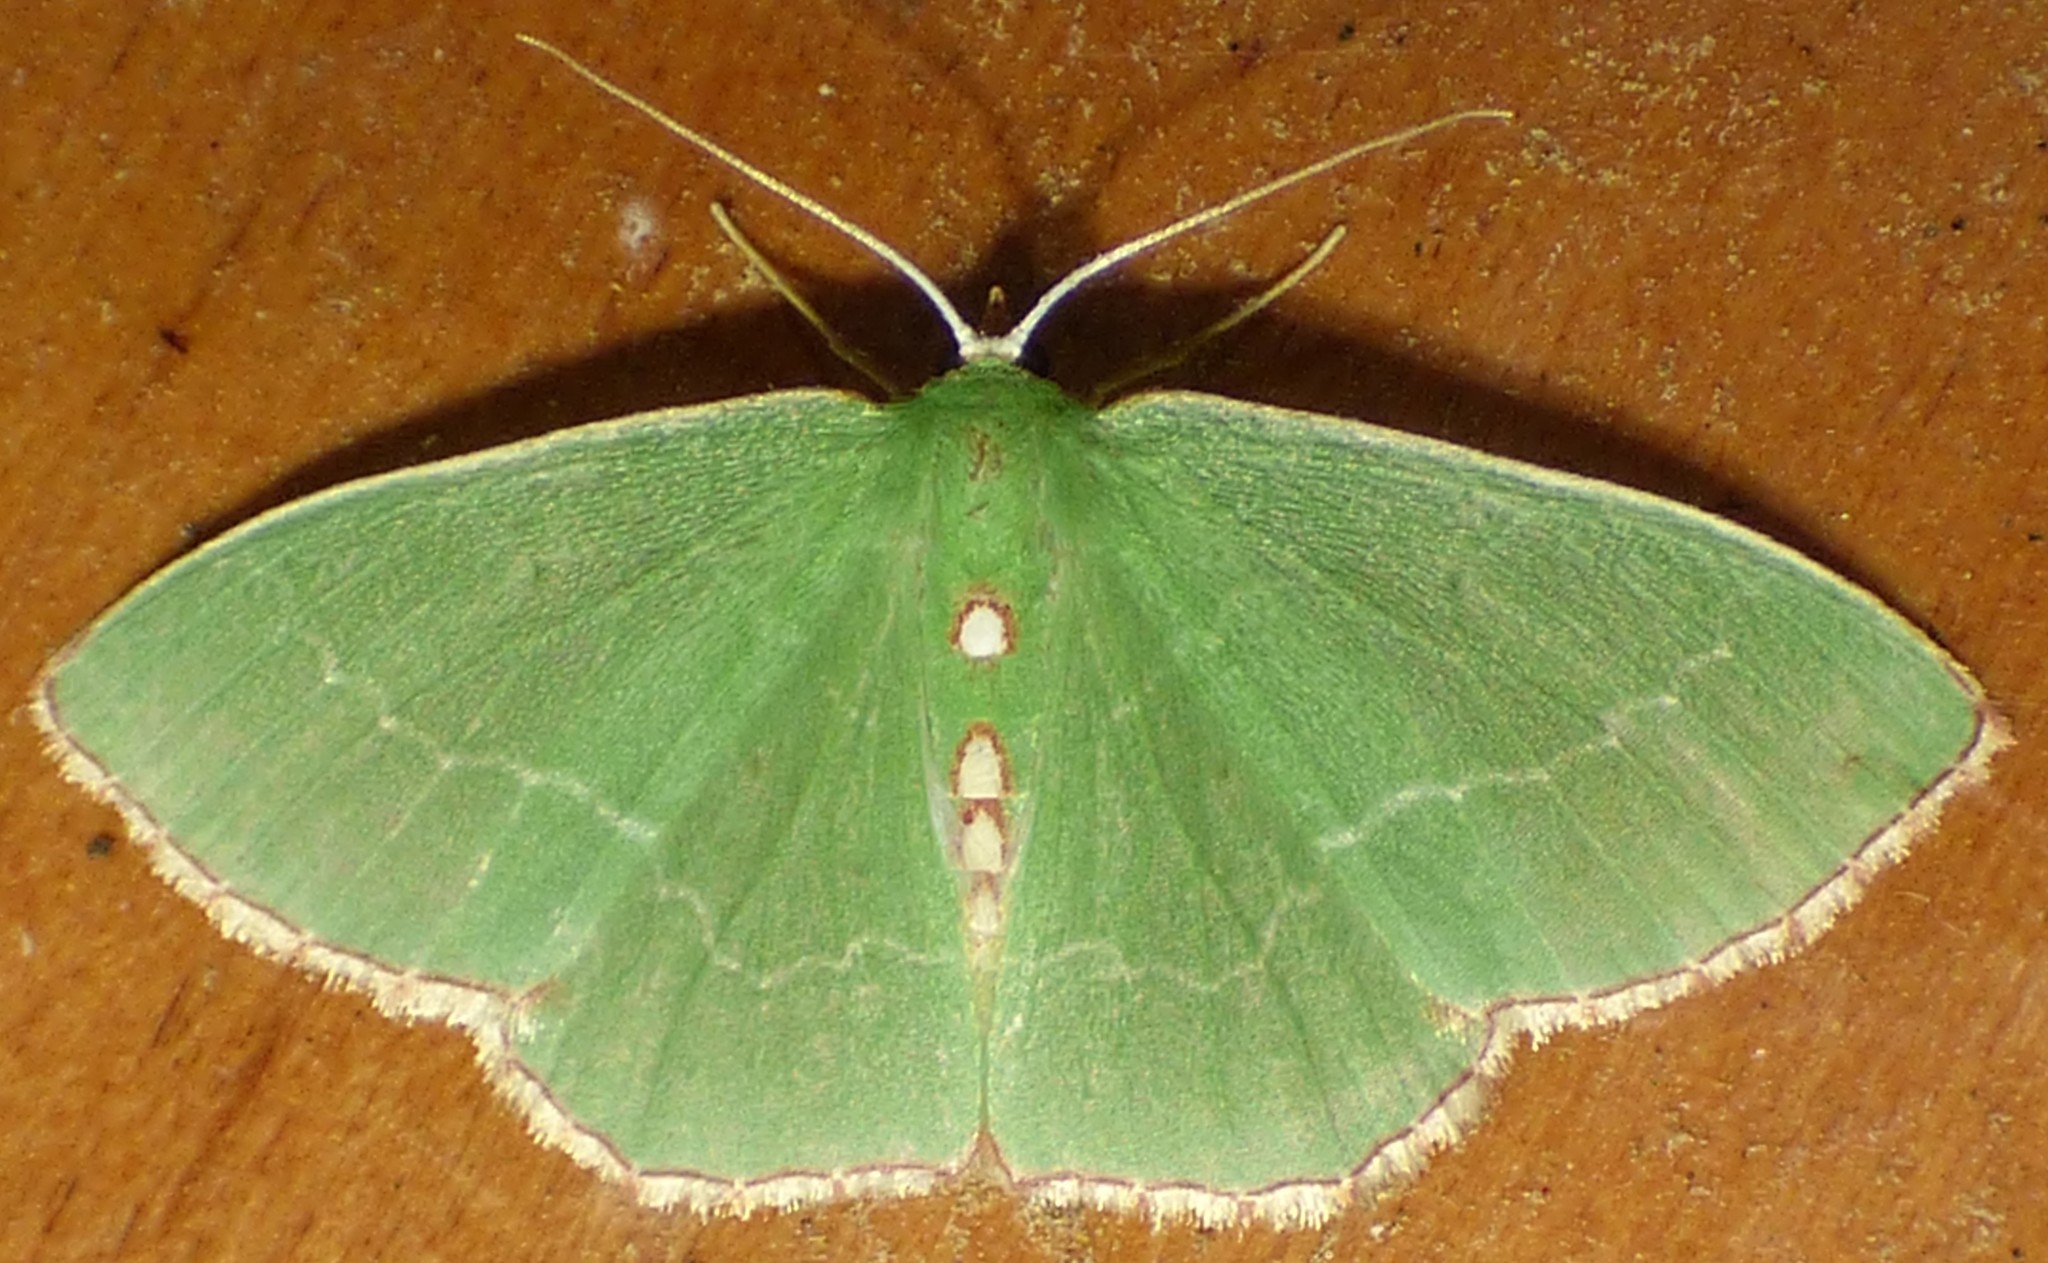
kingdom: Animalia
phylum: Arthropoda
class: Insecta
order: Lepidoptera
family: Geometridae
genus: Nemoria
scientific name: Nemoria lixaria
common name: Red-bordered emerald
